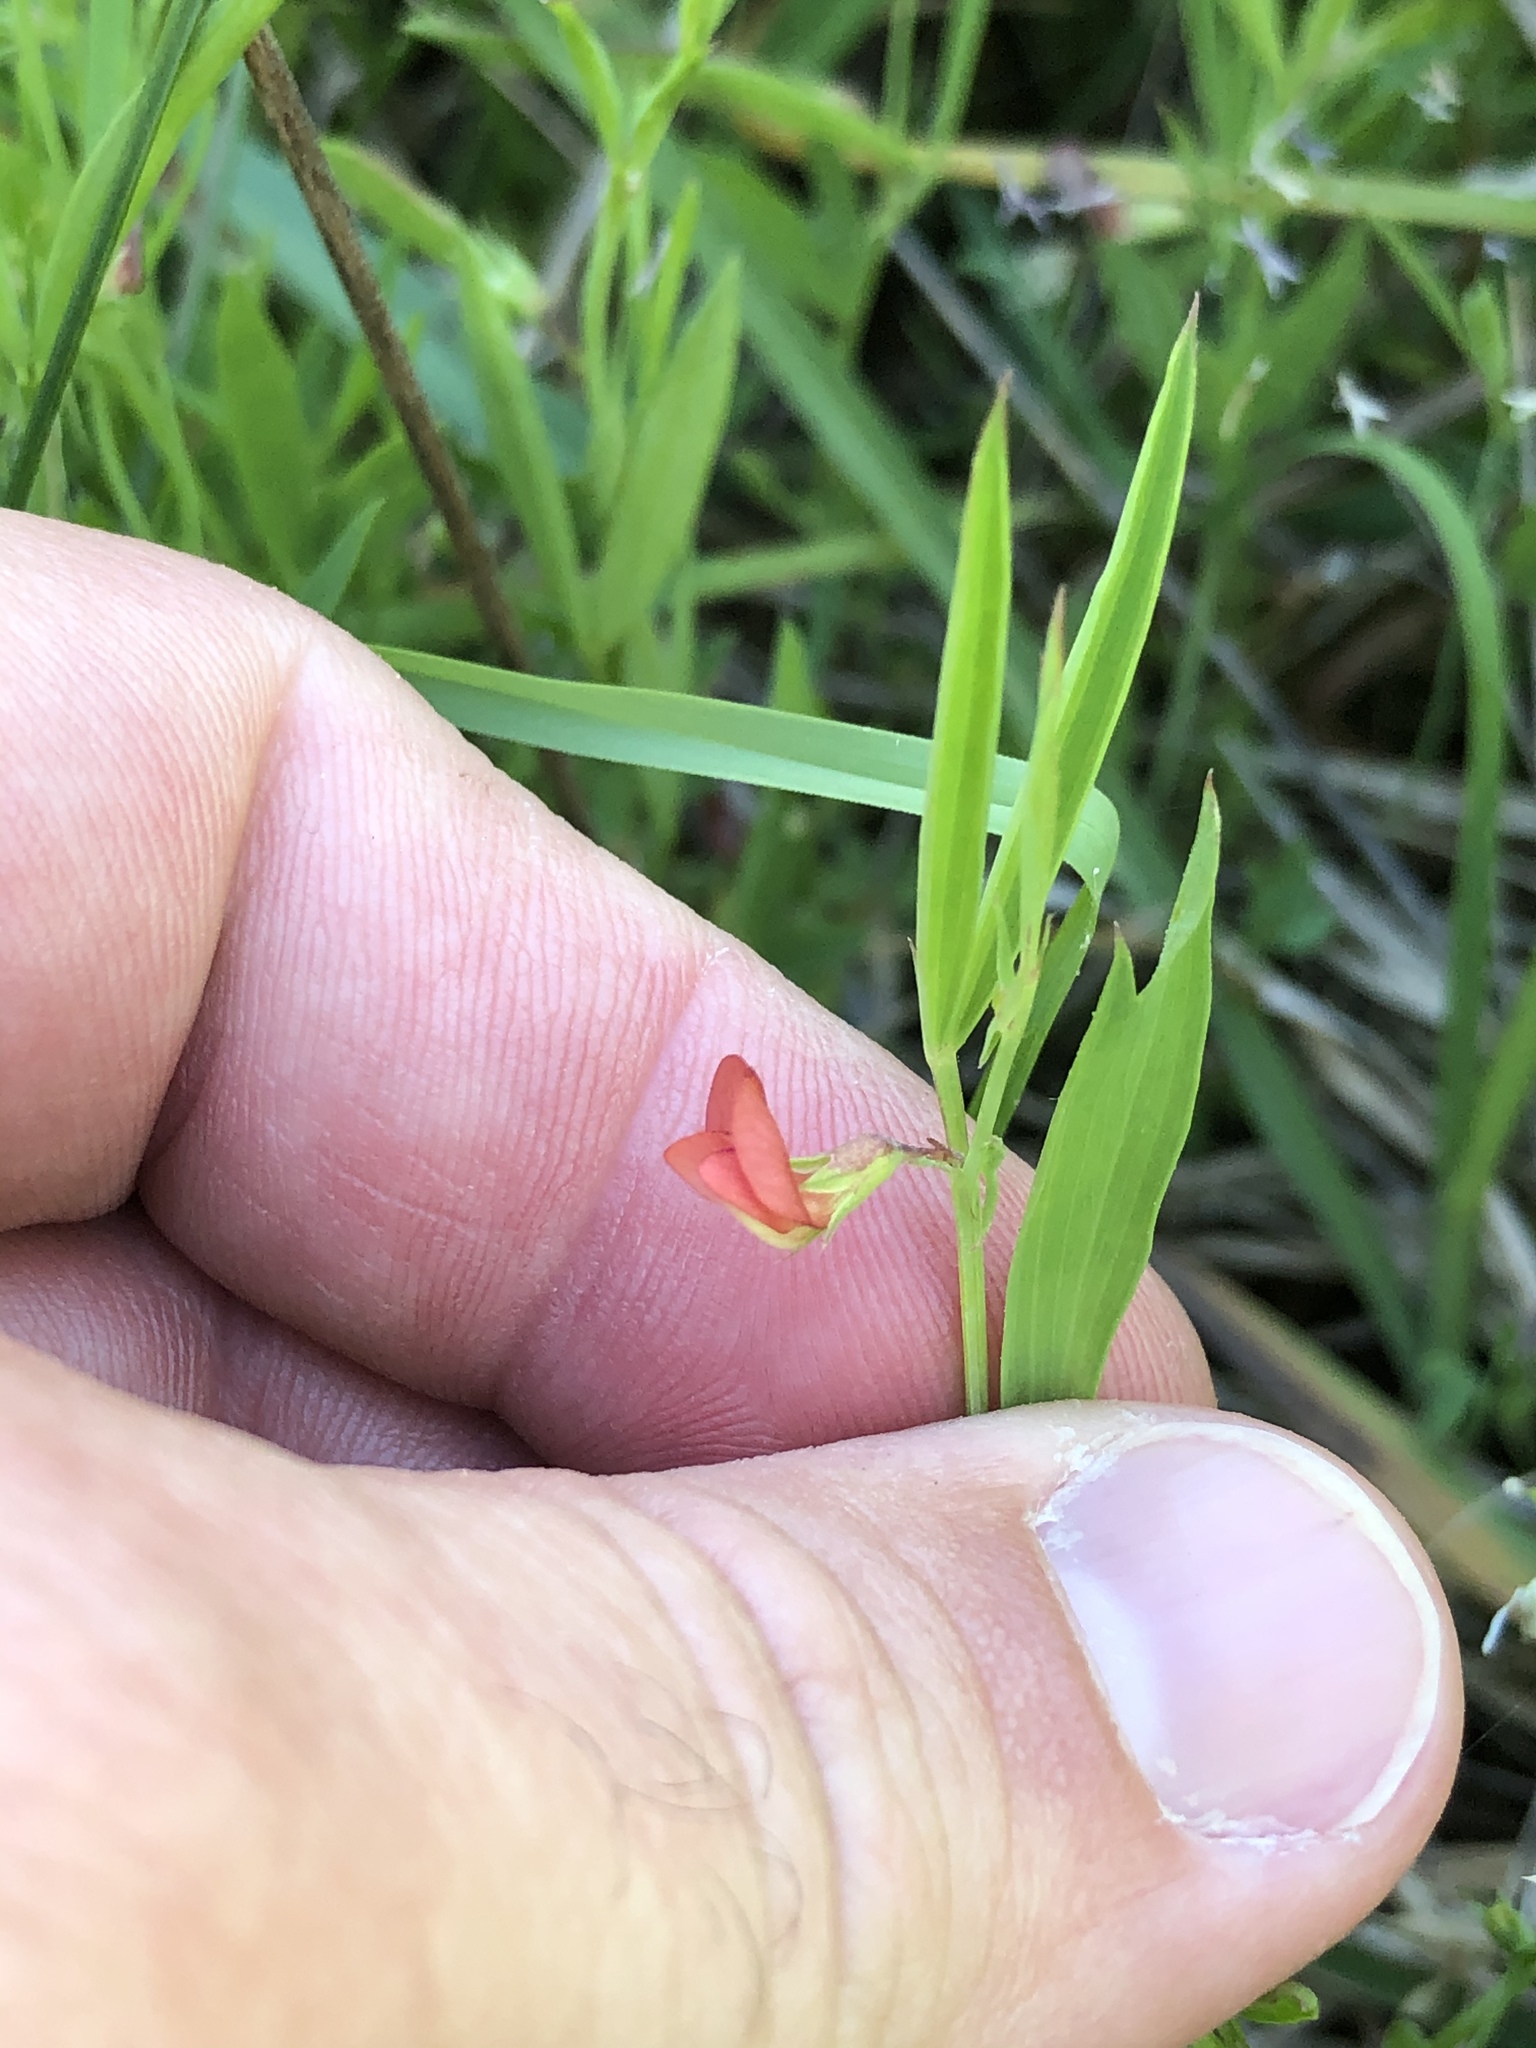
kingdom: Plantae
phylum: Tracheophyta
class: Magnoliopsida
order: Fabales
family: Fabaceae
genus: Lathyrus
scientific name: Lathyrus sphaericus
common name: Grass pea
